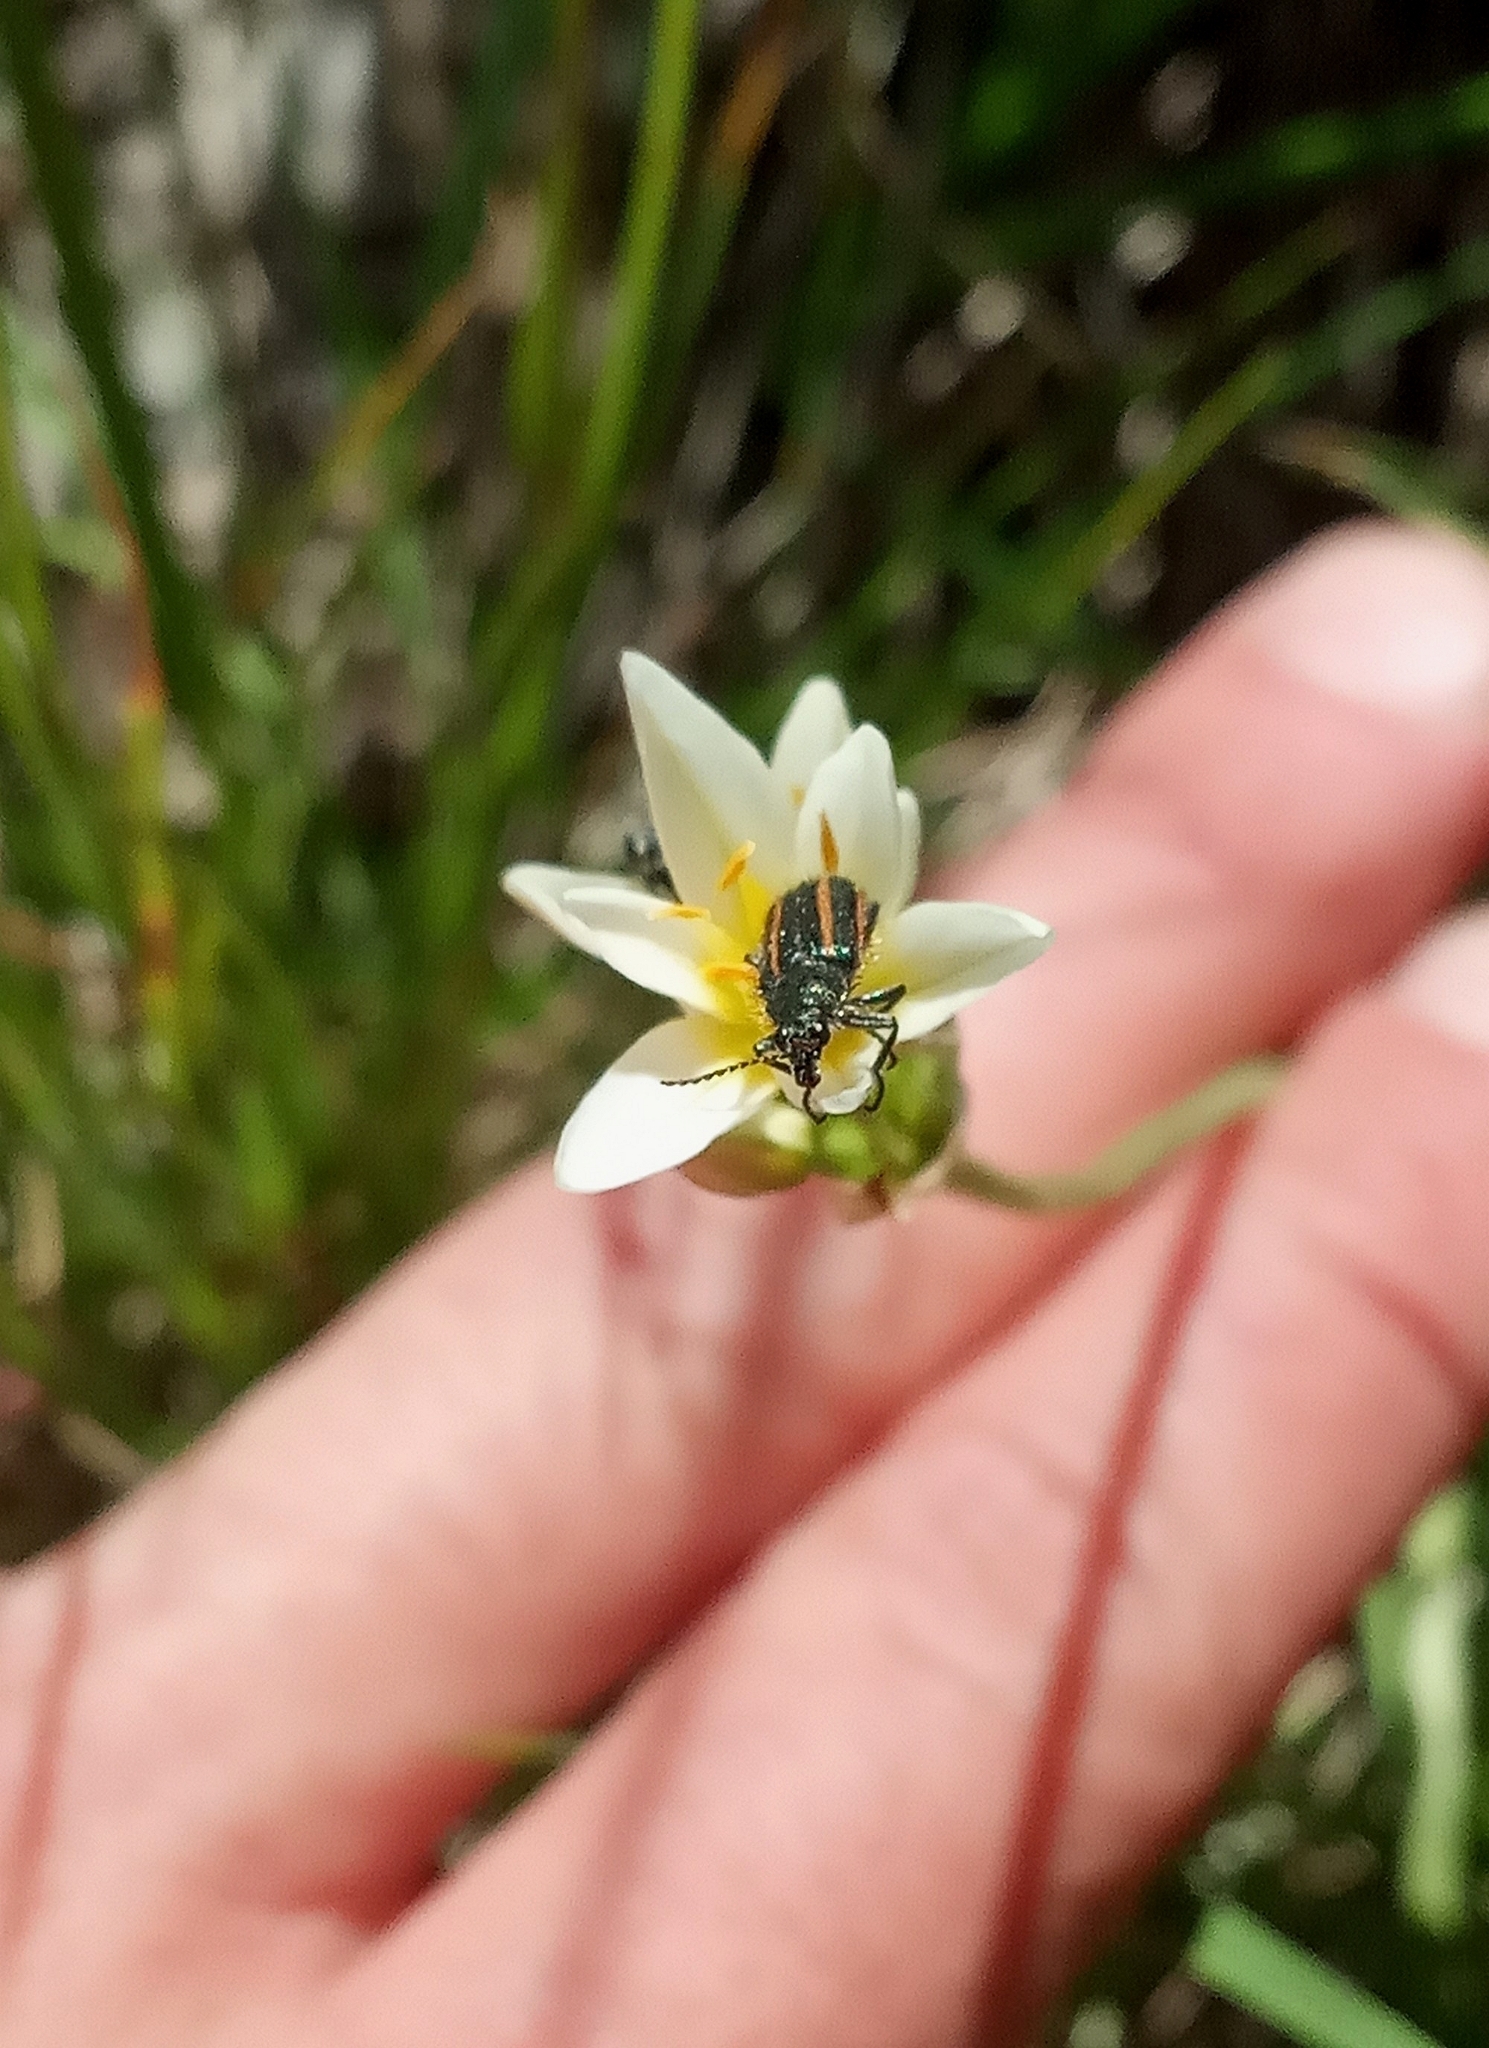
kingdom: Animalia
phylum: Arthropoda
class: Insecta
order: Coleoptera
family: Melyridae
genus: Astylus
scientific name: Astylus
